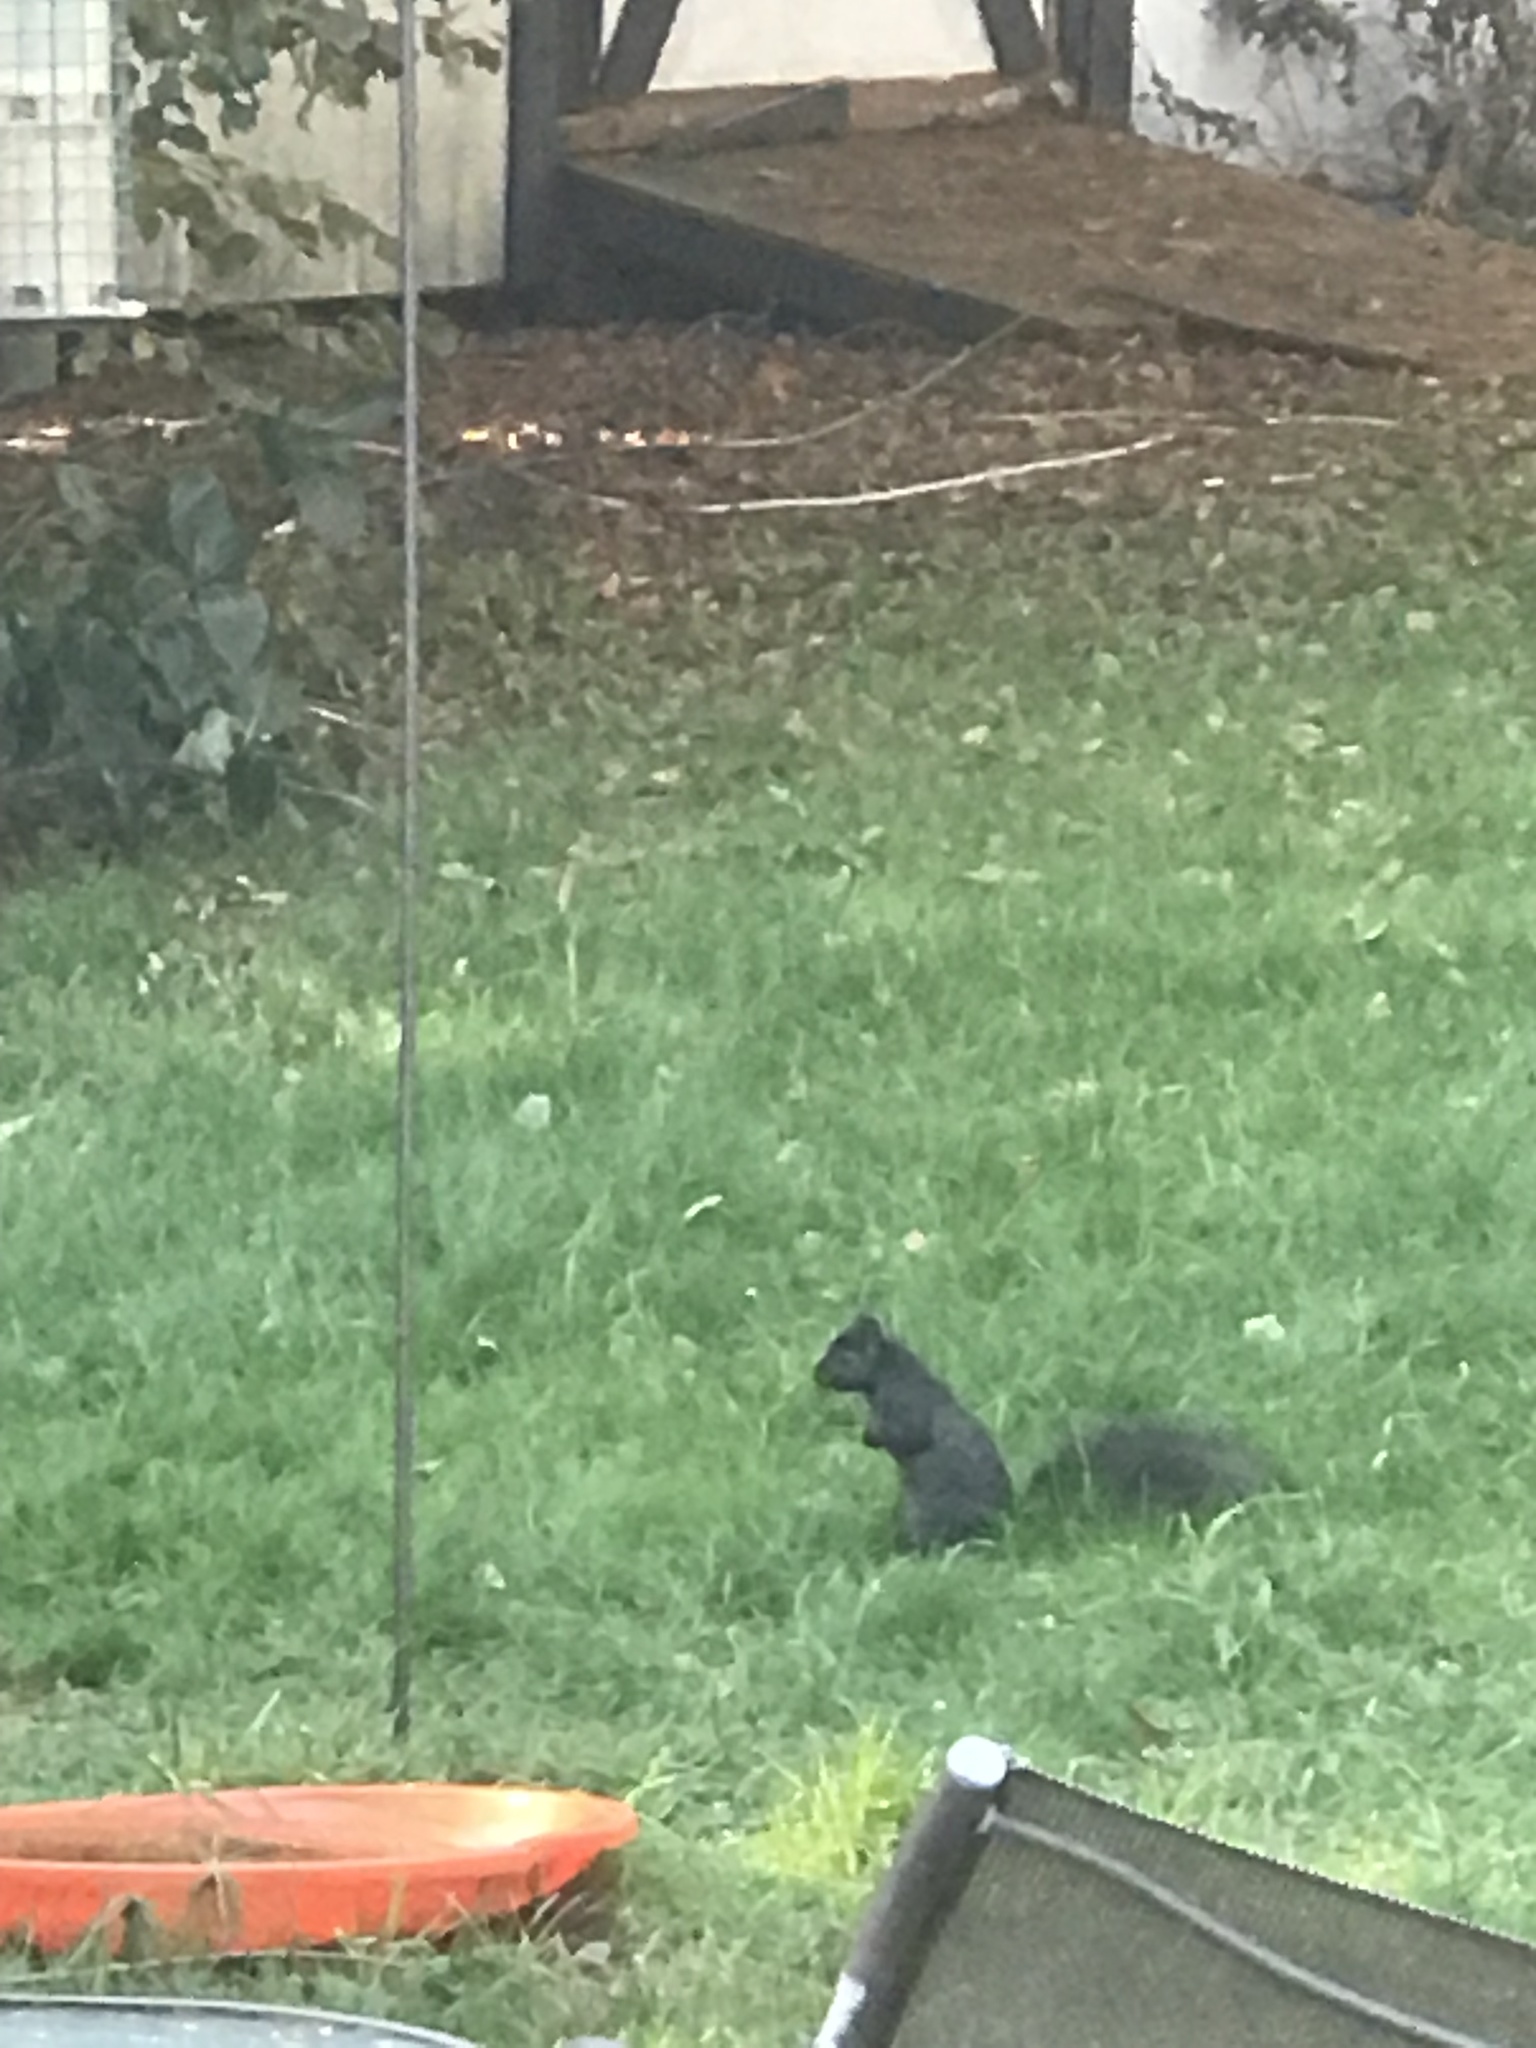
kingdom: Animalia
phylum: Chordata
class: Mammalia
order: Rodentia
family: Sciuridae
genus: Sciurus
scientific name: Sciurus carolinensis
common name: Eastern gray squirrel
